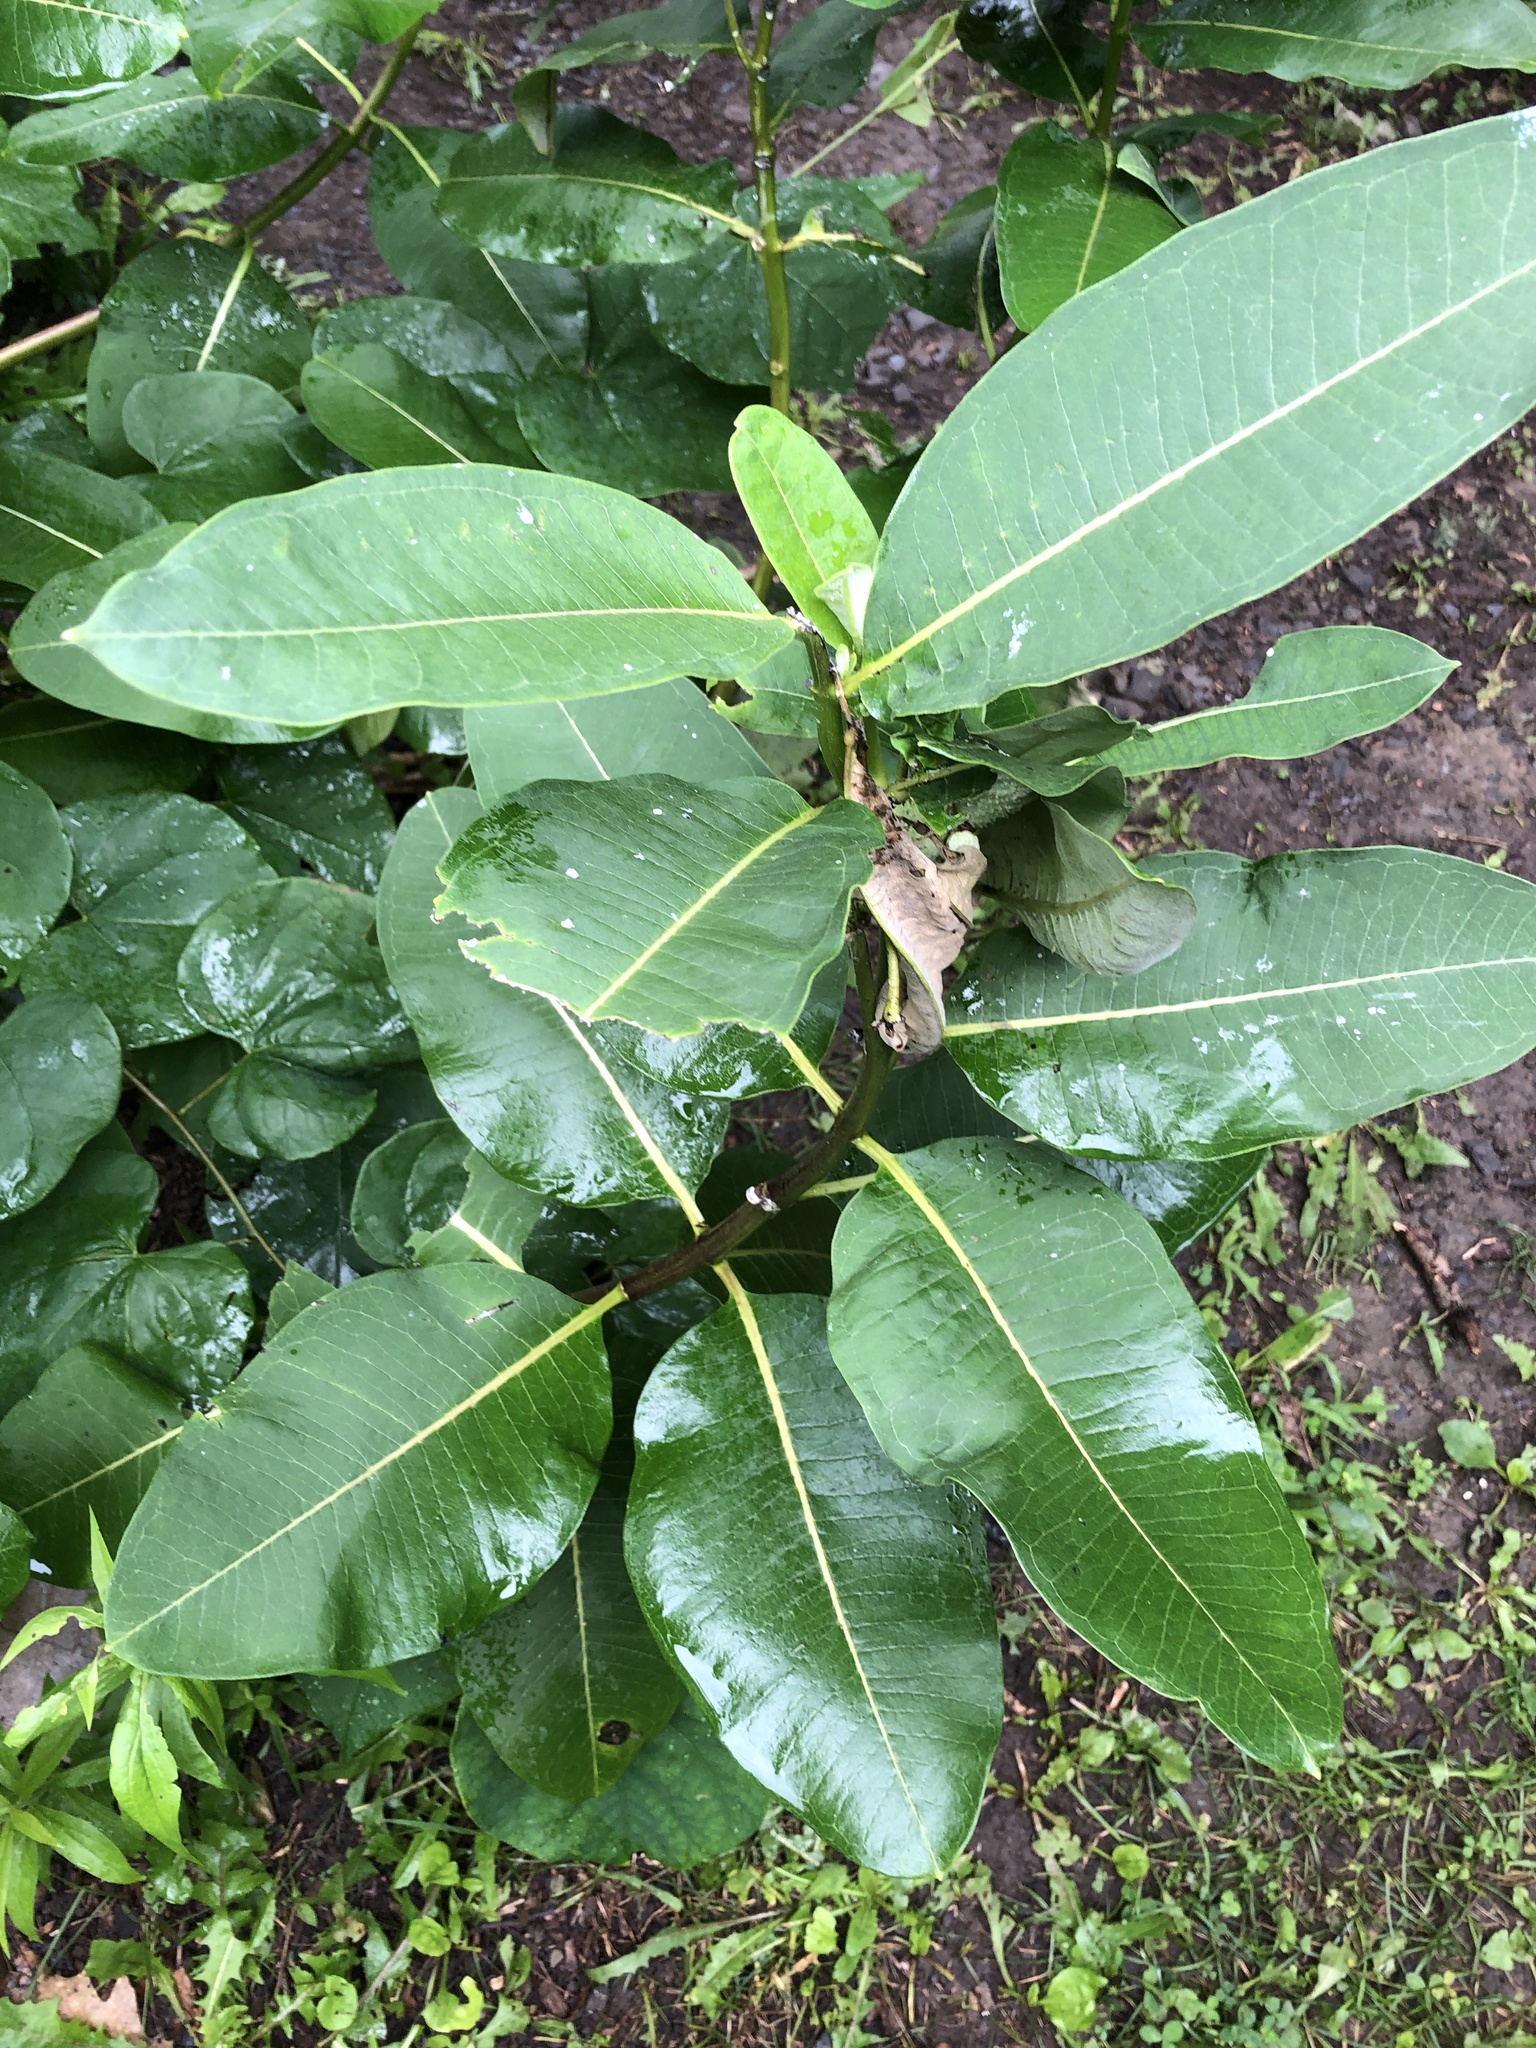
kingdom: Plantae
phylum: Tracheophyta
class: Magnoliopsida
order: Gentianales
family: Apocynaceae
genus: Asclepias
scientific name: Asclepias syriaca
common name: Common milkweed
